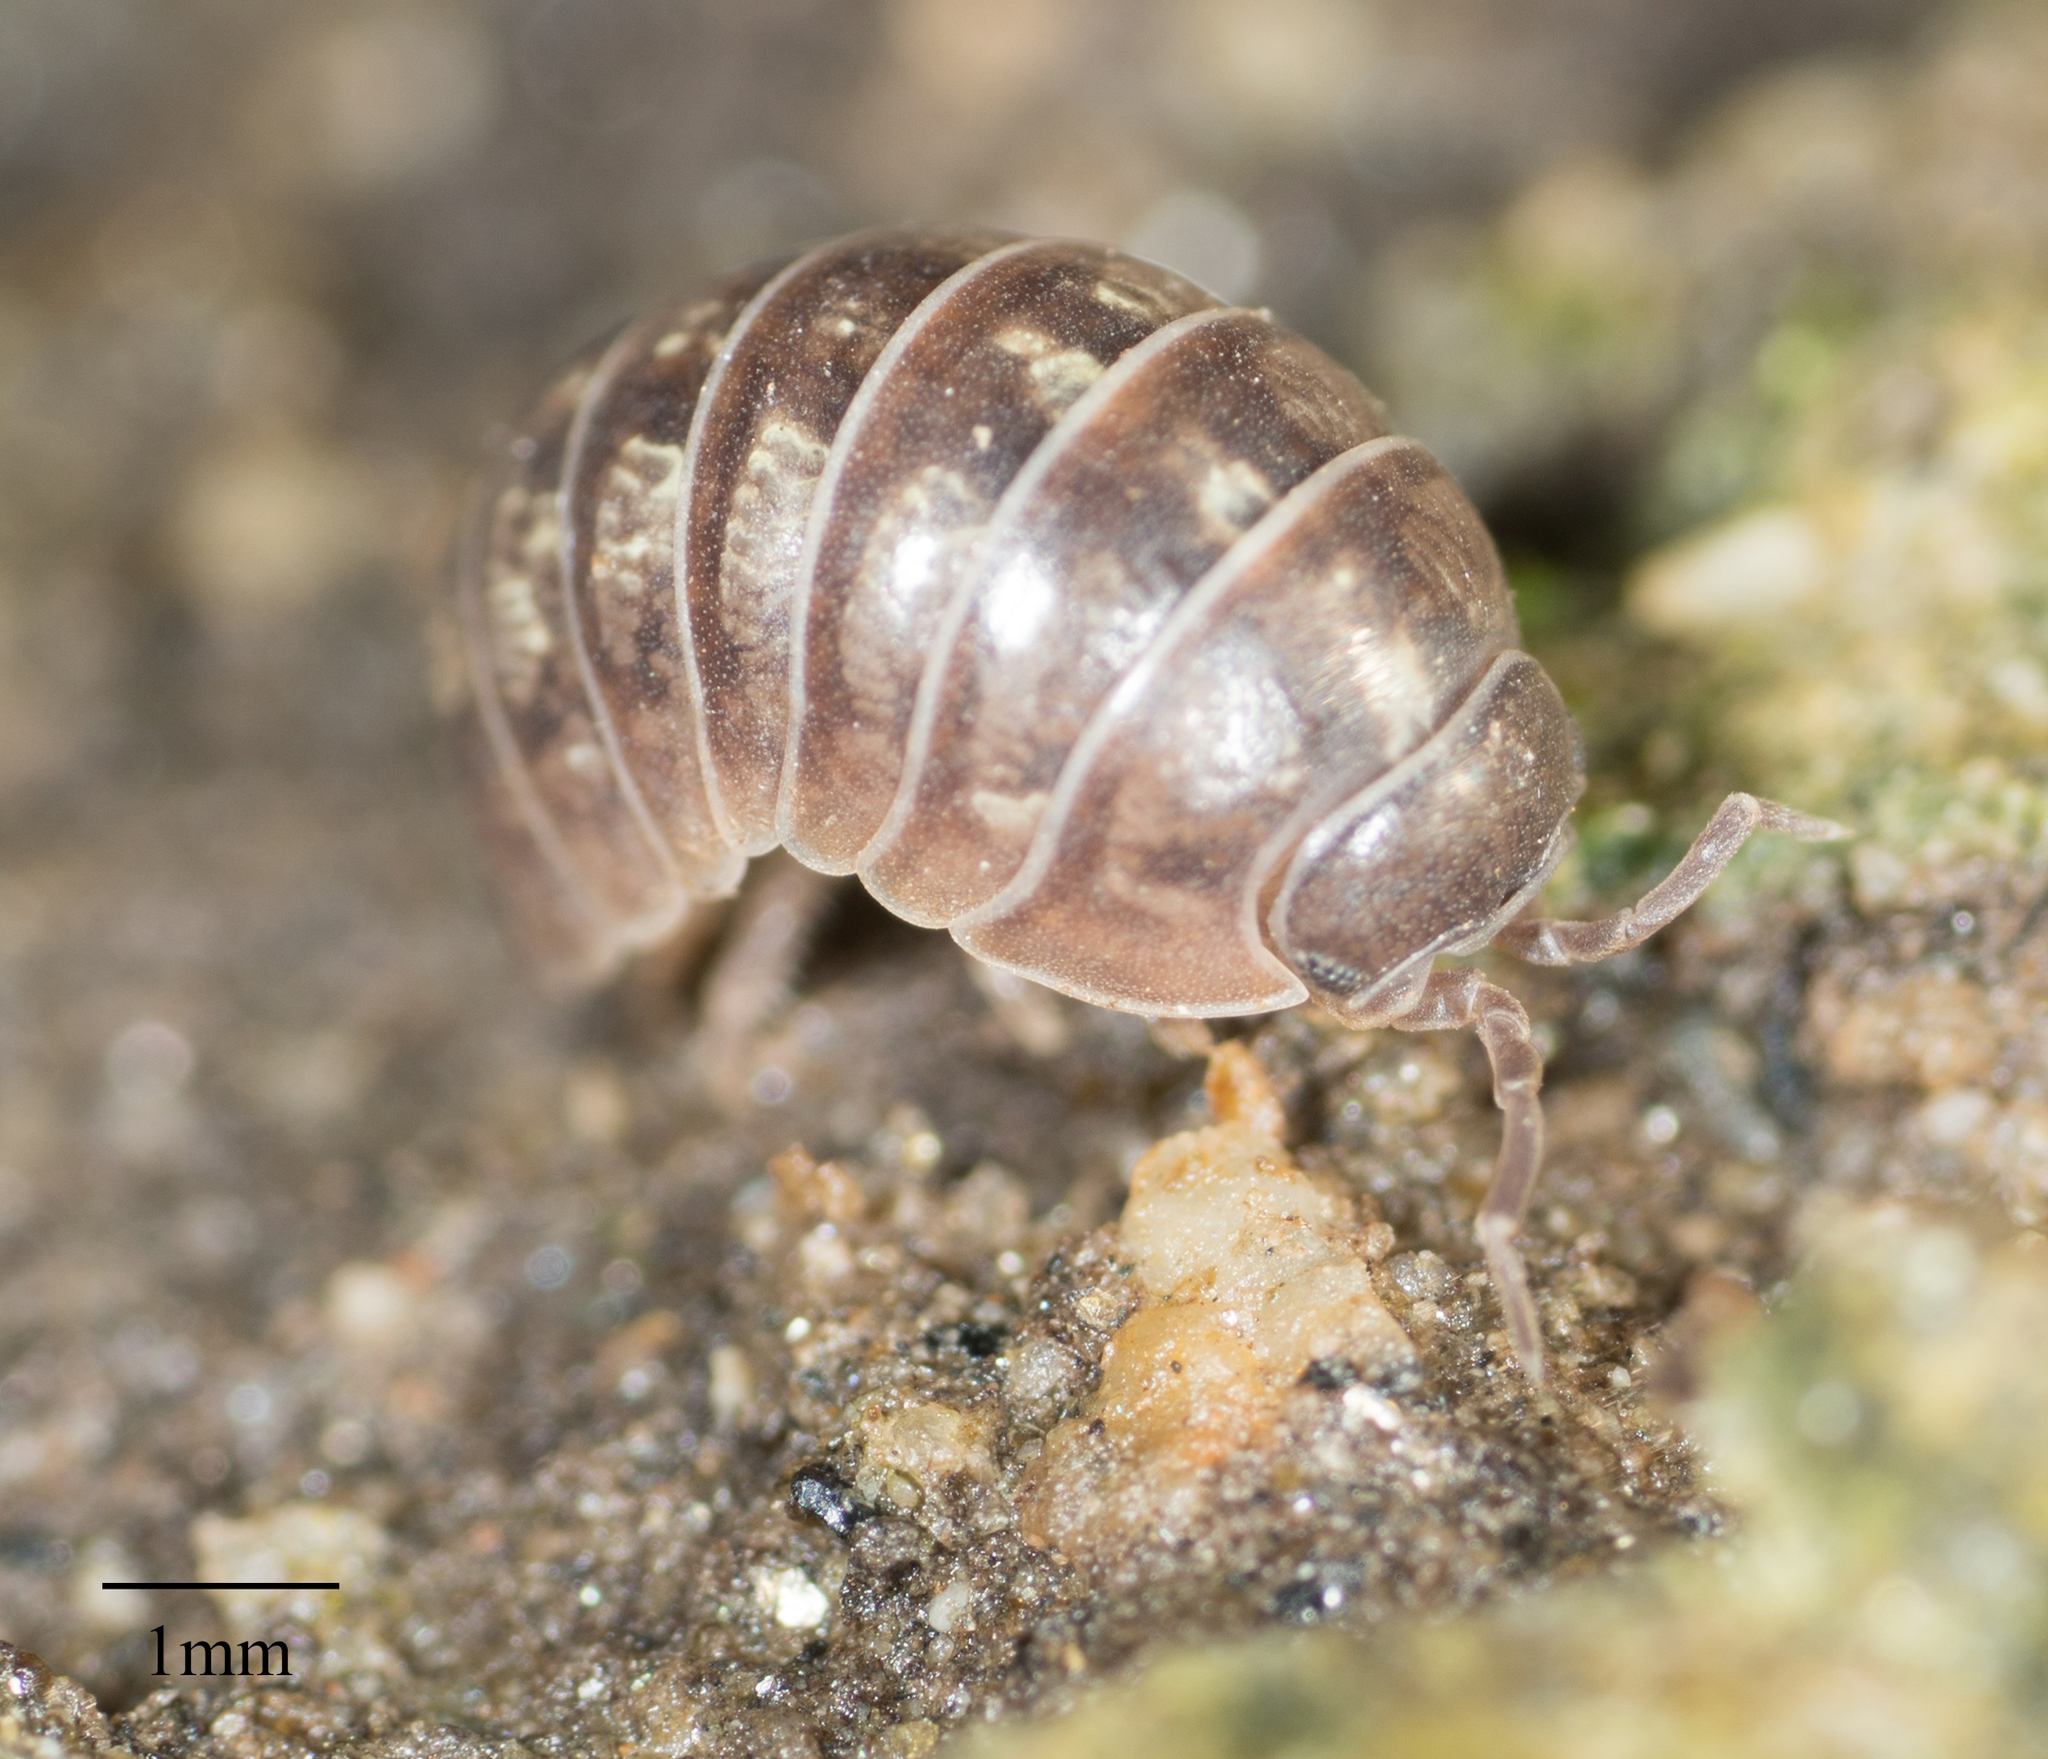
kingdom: Animalia
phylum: Arthropoda
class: Malacostraca
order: Isopoda
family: Armadillidiidae
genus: Armadillidium
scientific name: Armadillidium vulgare
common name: Common pill woodlouse
